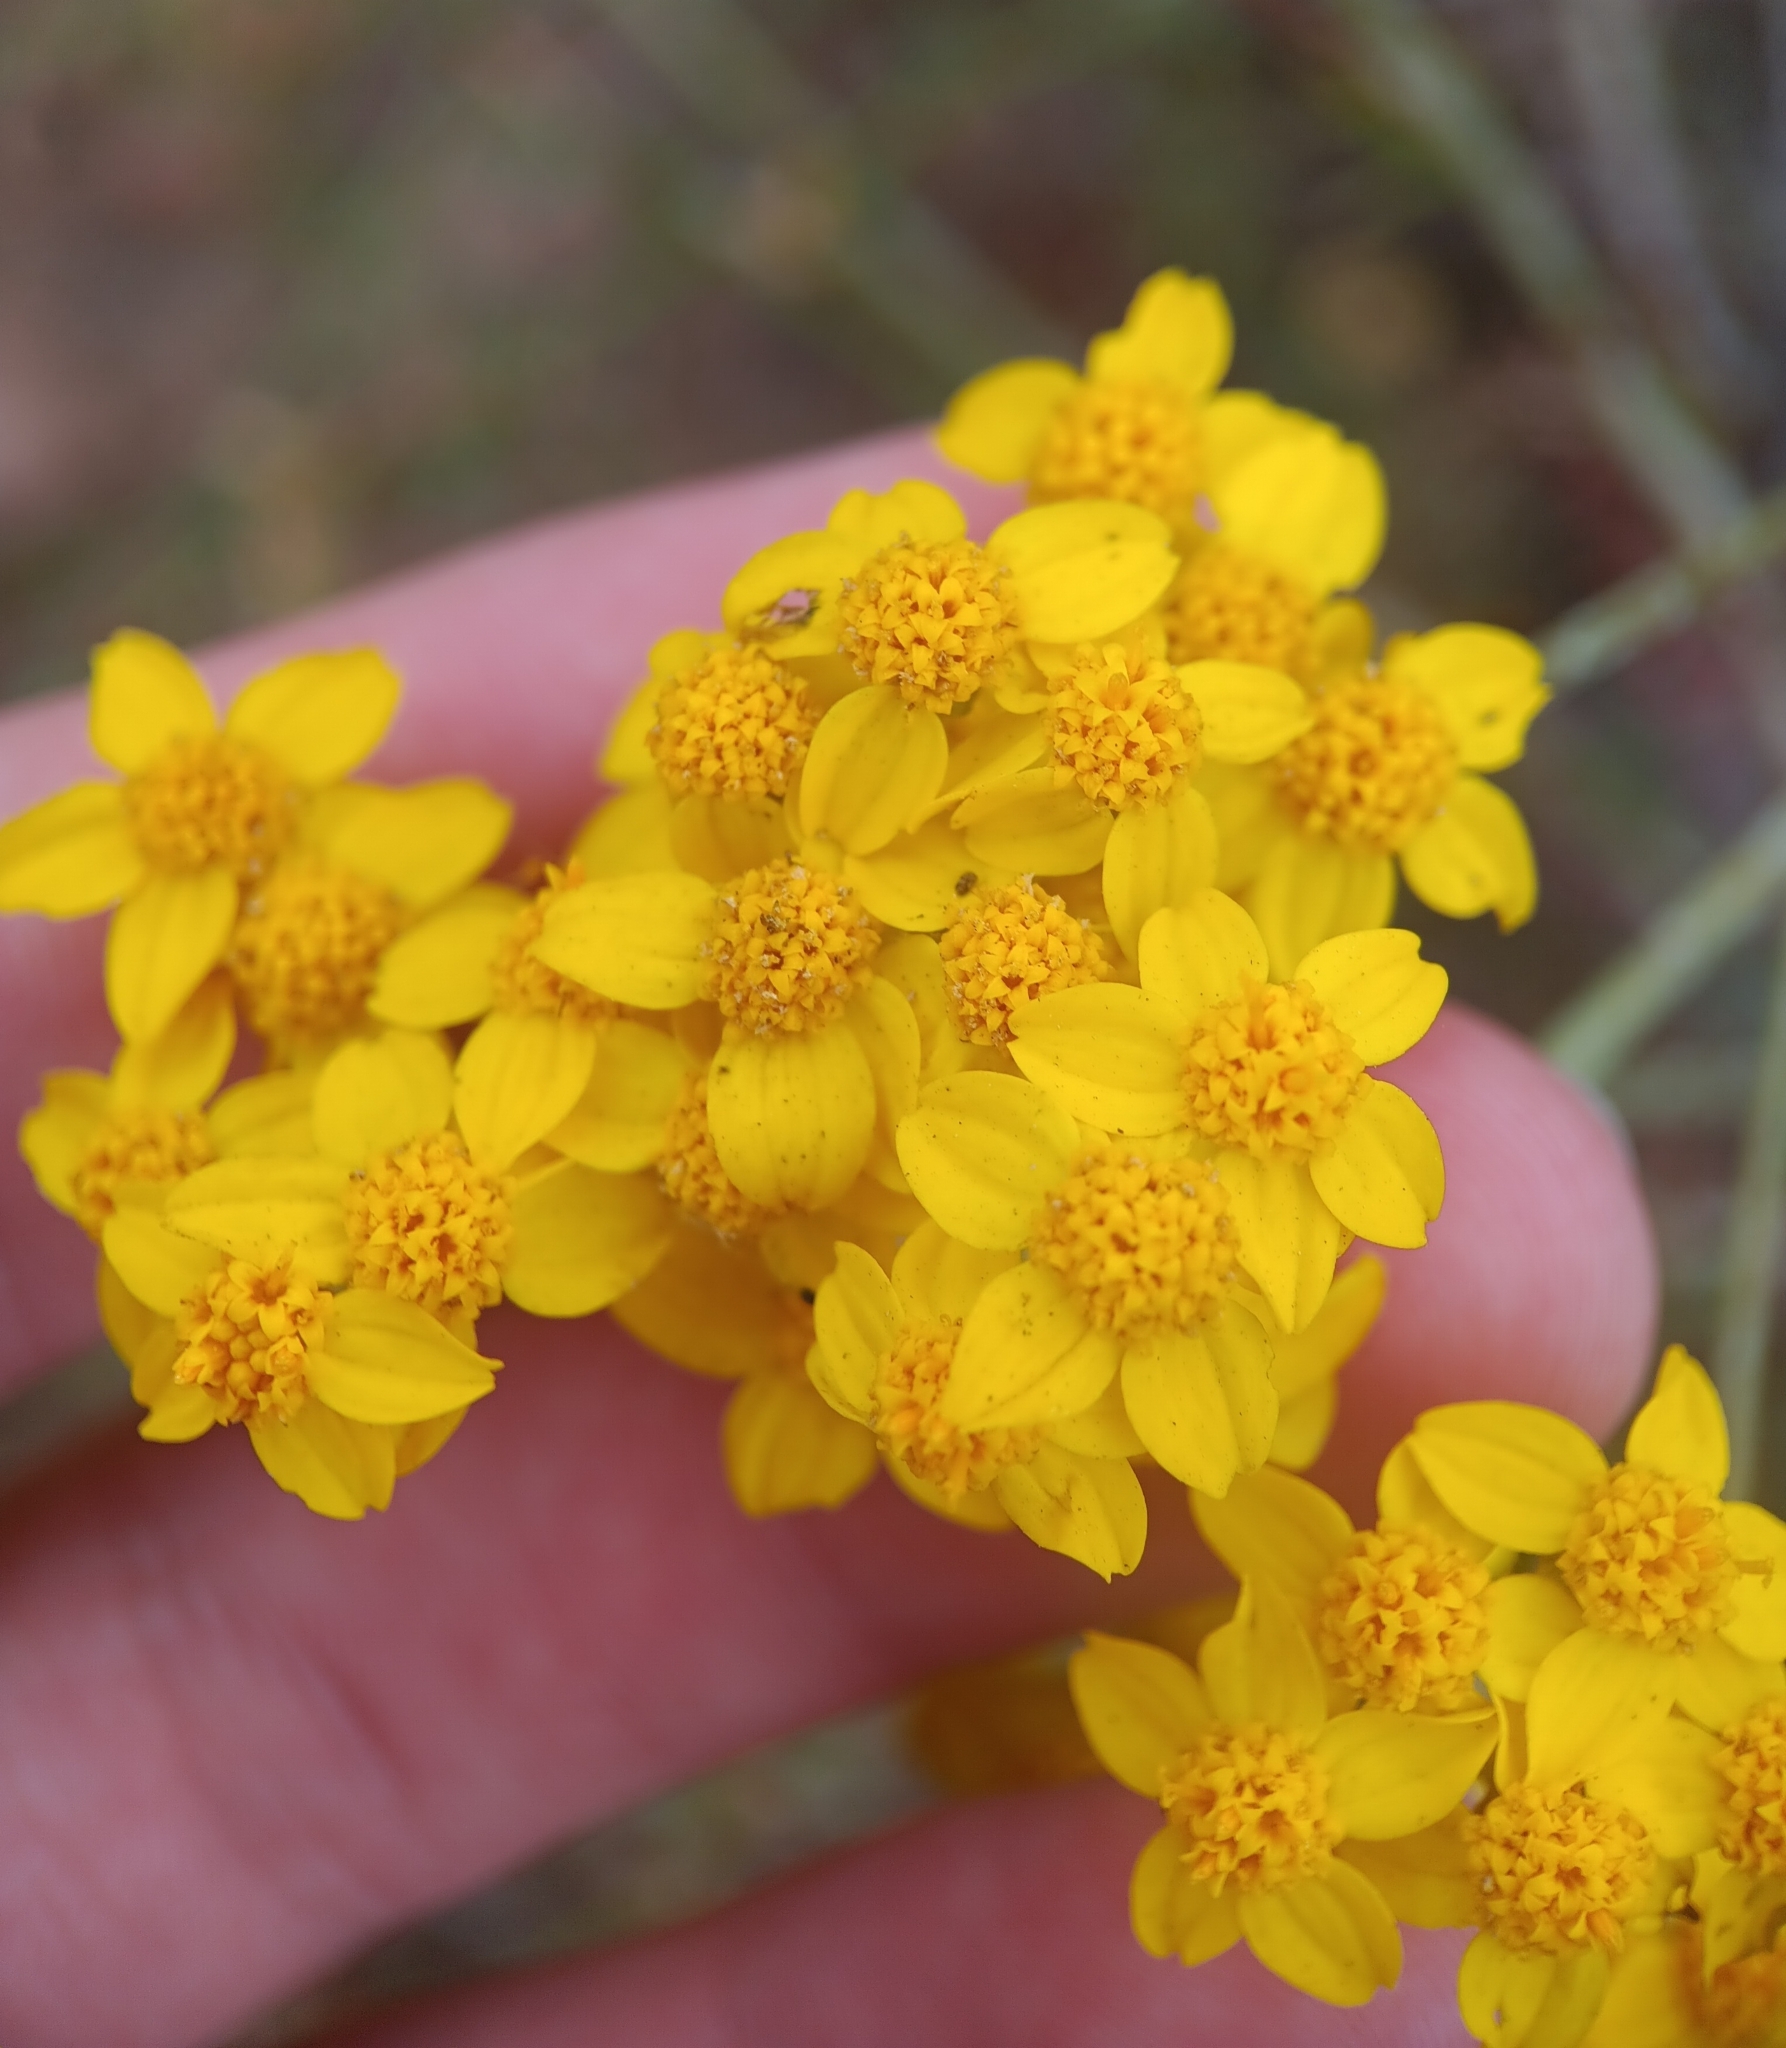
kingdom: Plantae
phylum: Tracheophyta
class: Magnoliopsida
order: Asterales
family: Asteraceae
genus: Eriophyllum
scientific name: Eriophyllum confertiflorum
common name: Golden-yarrow
